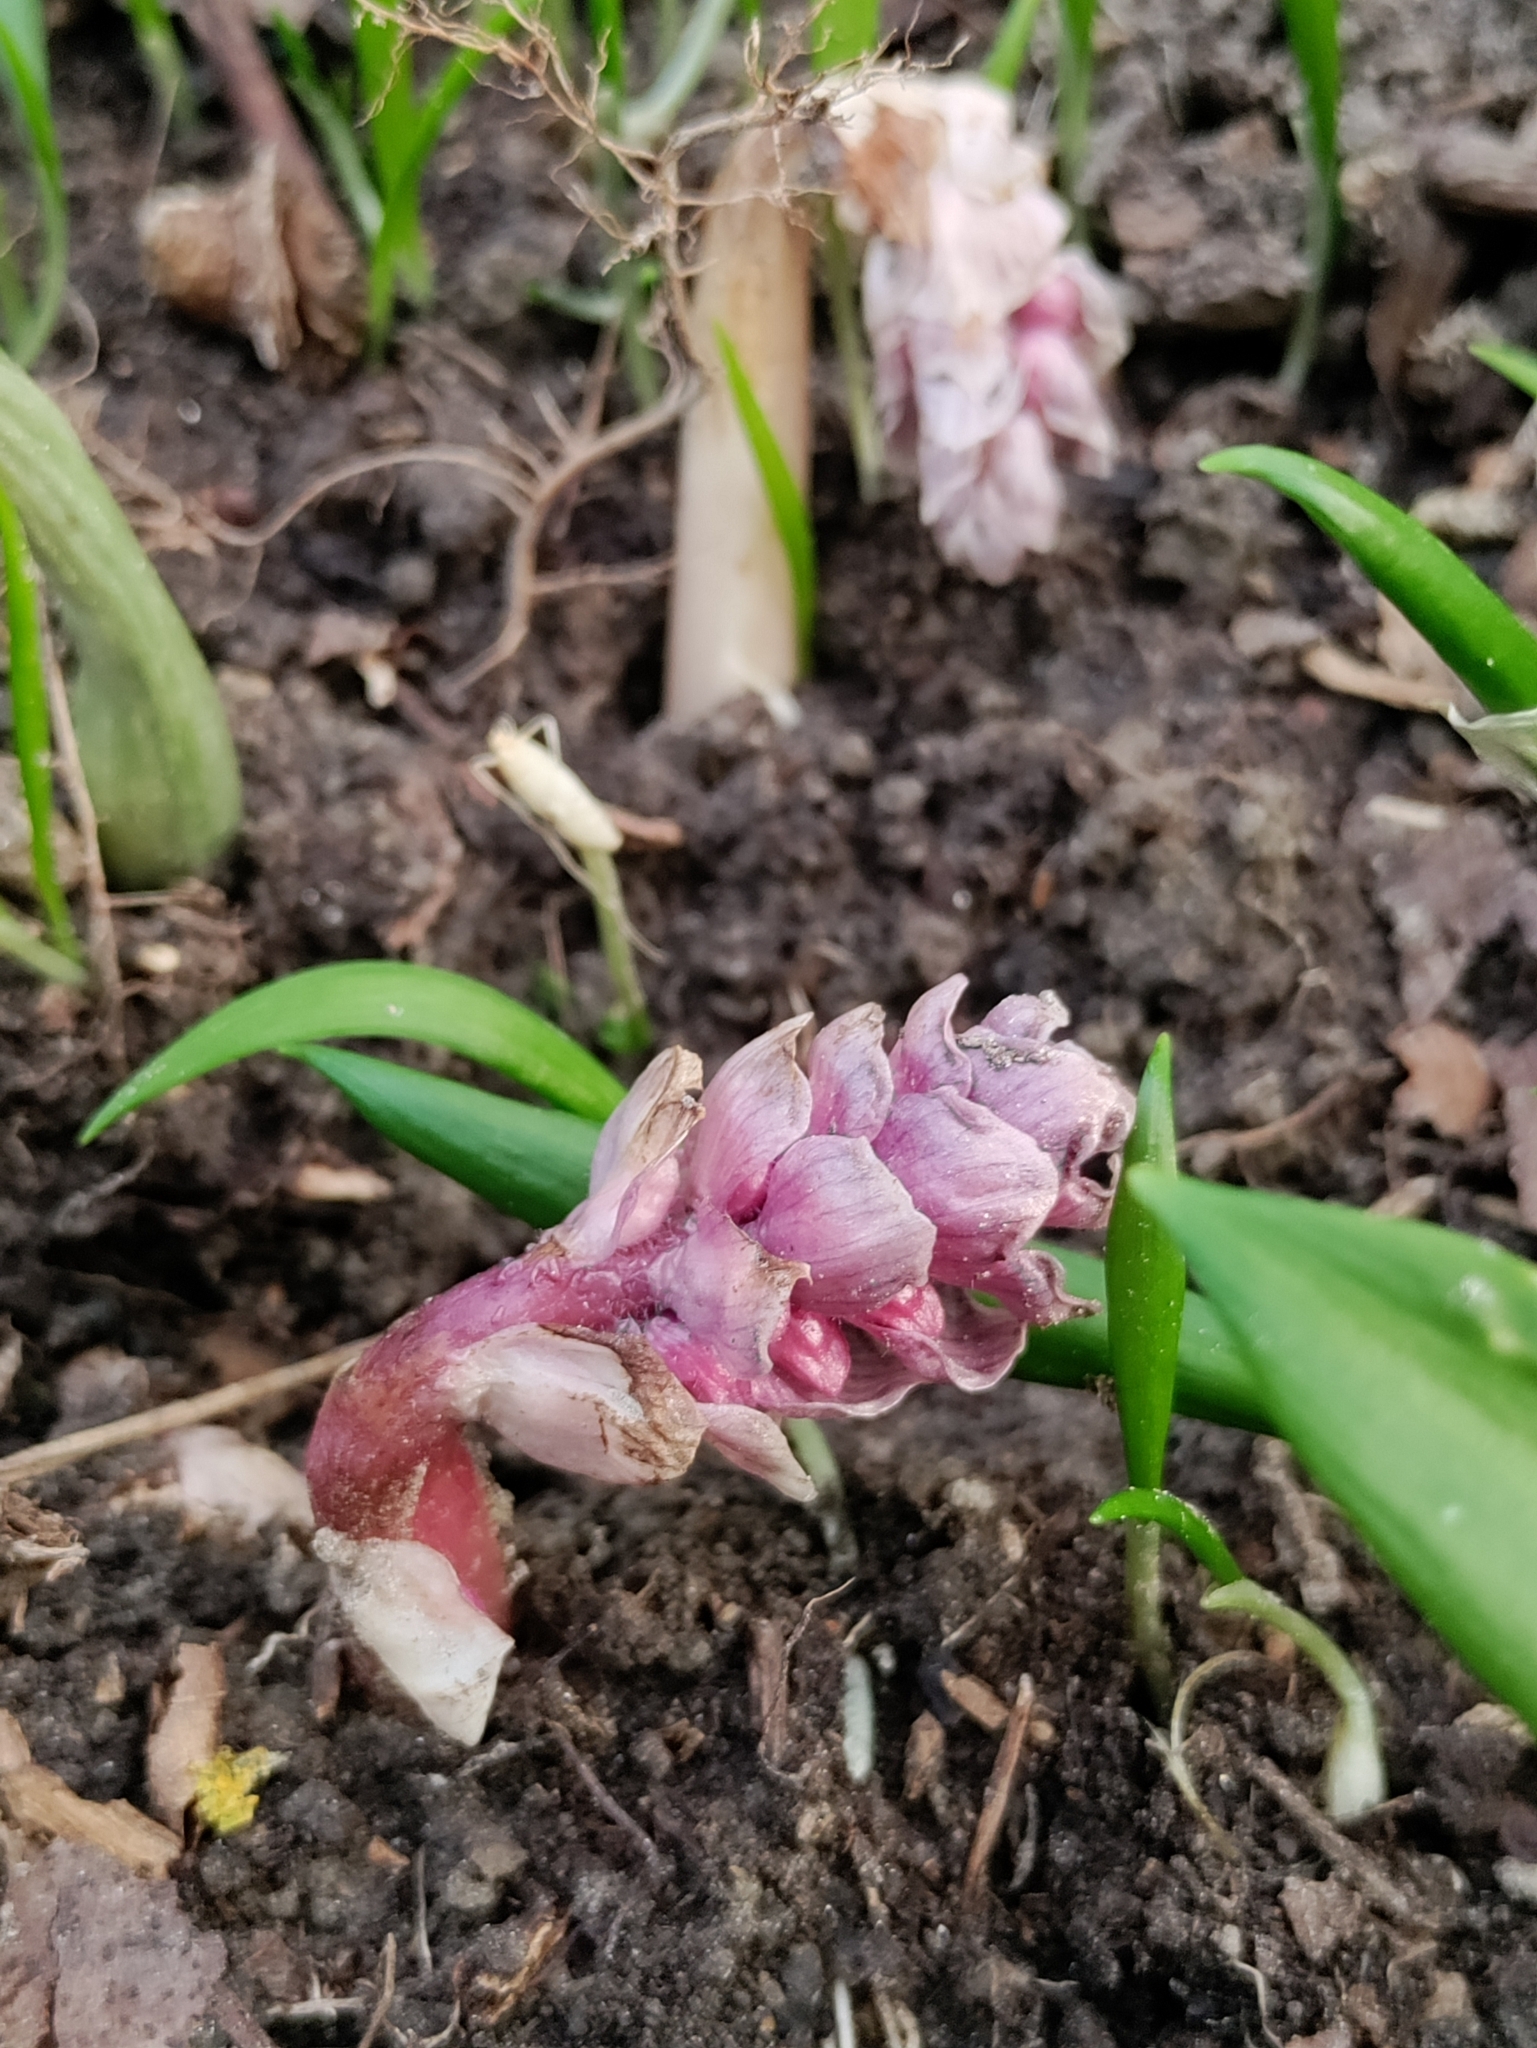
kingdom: Plantae
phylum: Tracheophyta
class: Magnoliopsida
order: Lamiales
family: Orobanchaceae
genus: Lathraea
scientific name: Lathraea squamaria
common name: Toothwort
